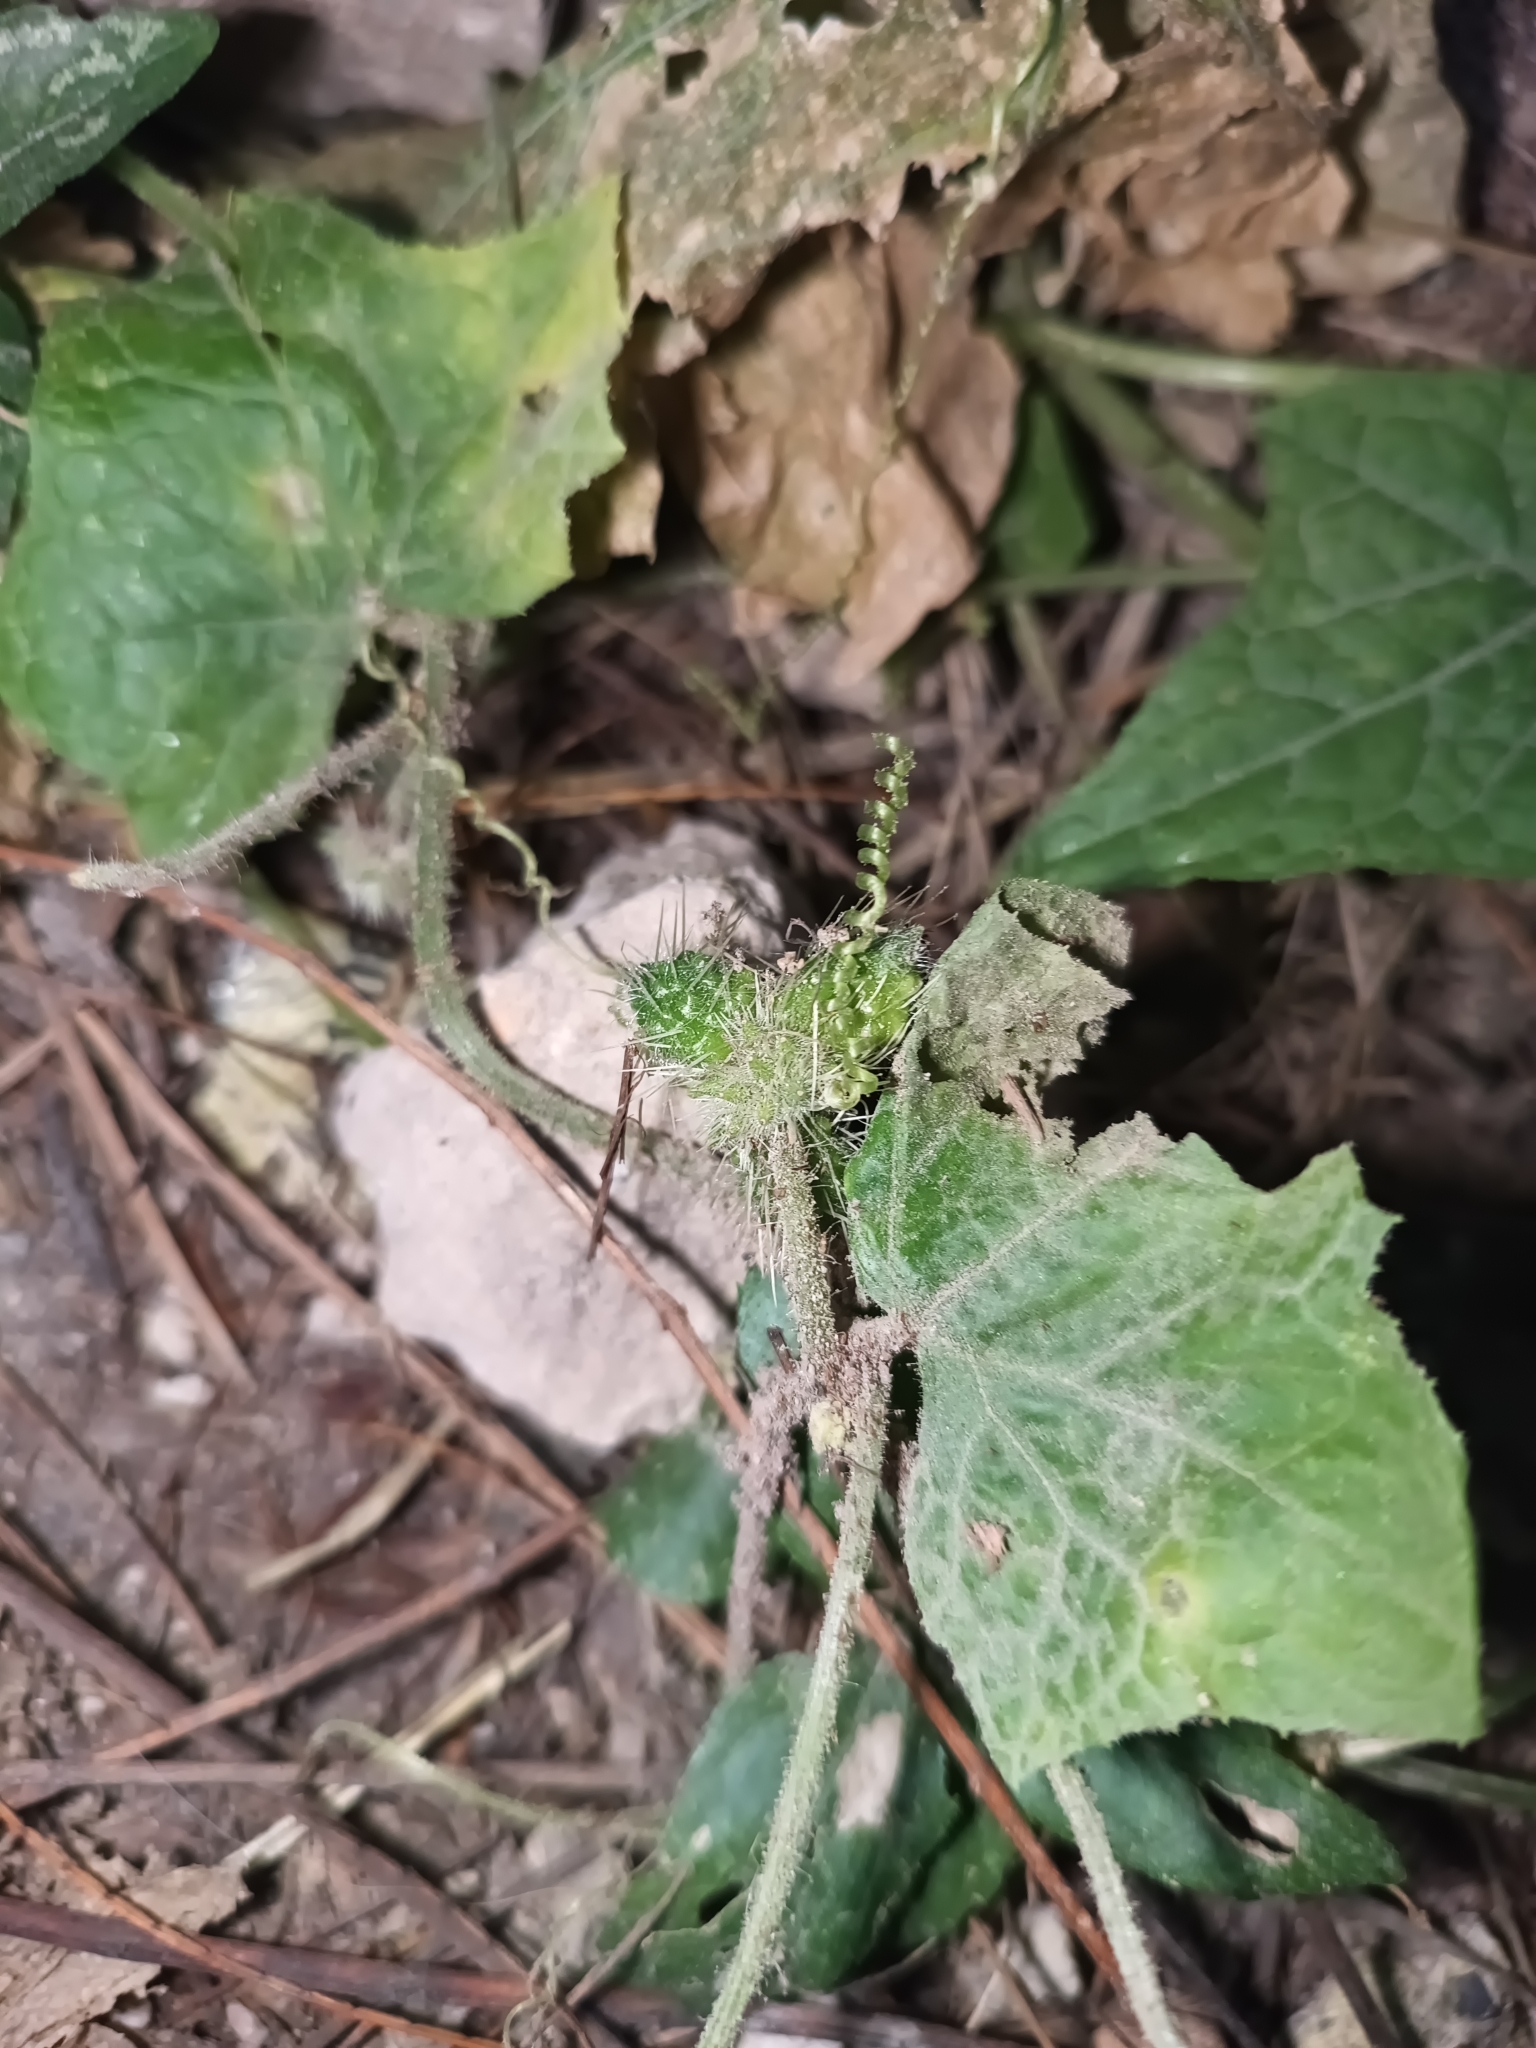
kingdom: Plantae
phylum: Tracheophyta
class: Magnoliopsida
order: Cucurbitales
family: Cucurbitaceae
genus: Sicyos
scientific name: Sicyos angulatus
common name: Angled burr cucumber
